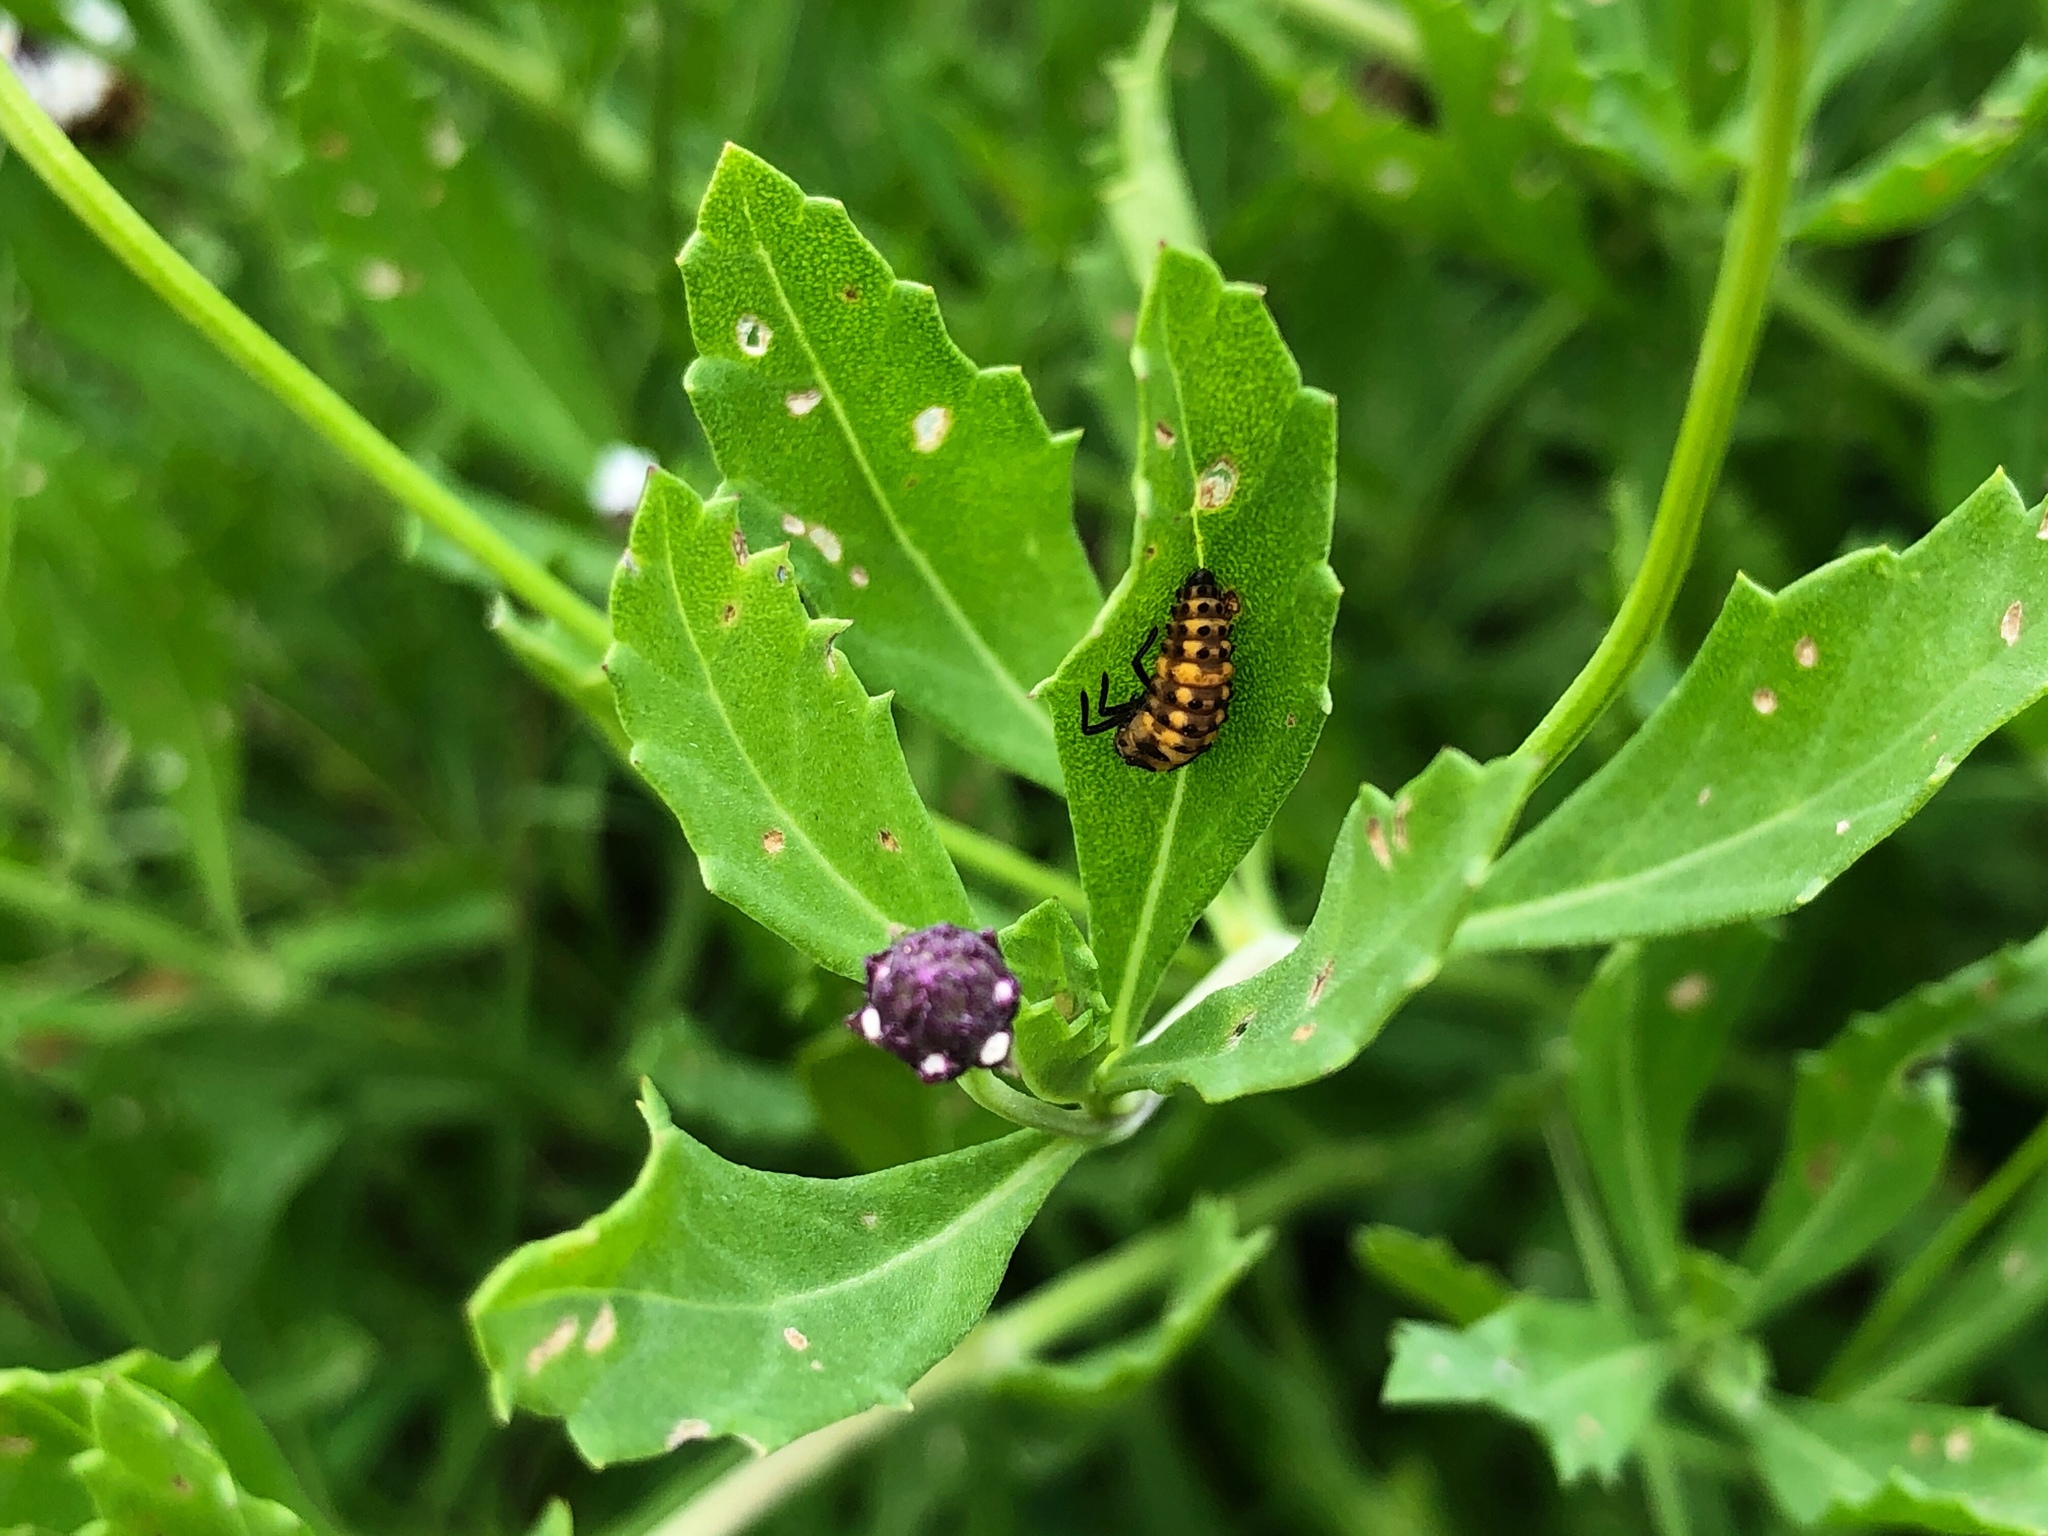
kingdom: Animalia
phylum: Arthropoda
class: Insecta
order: Coleoptera
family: Coccinellidae
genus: Coleomegilla
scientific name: Coleomegilla maculata
